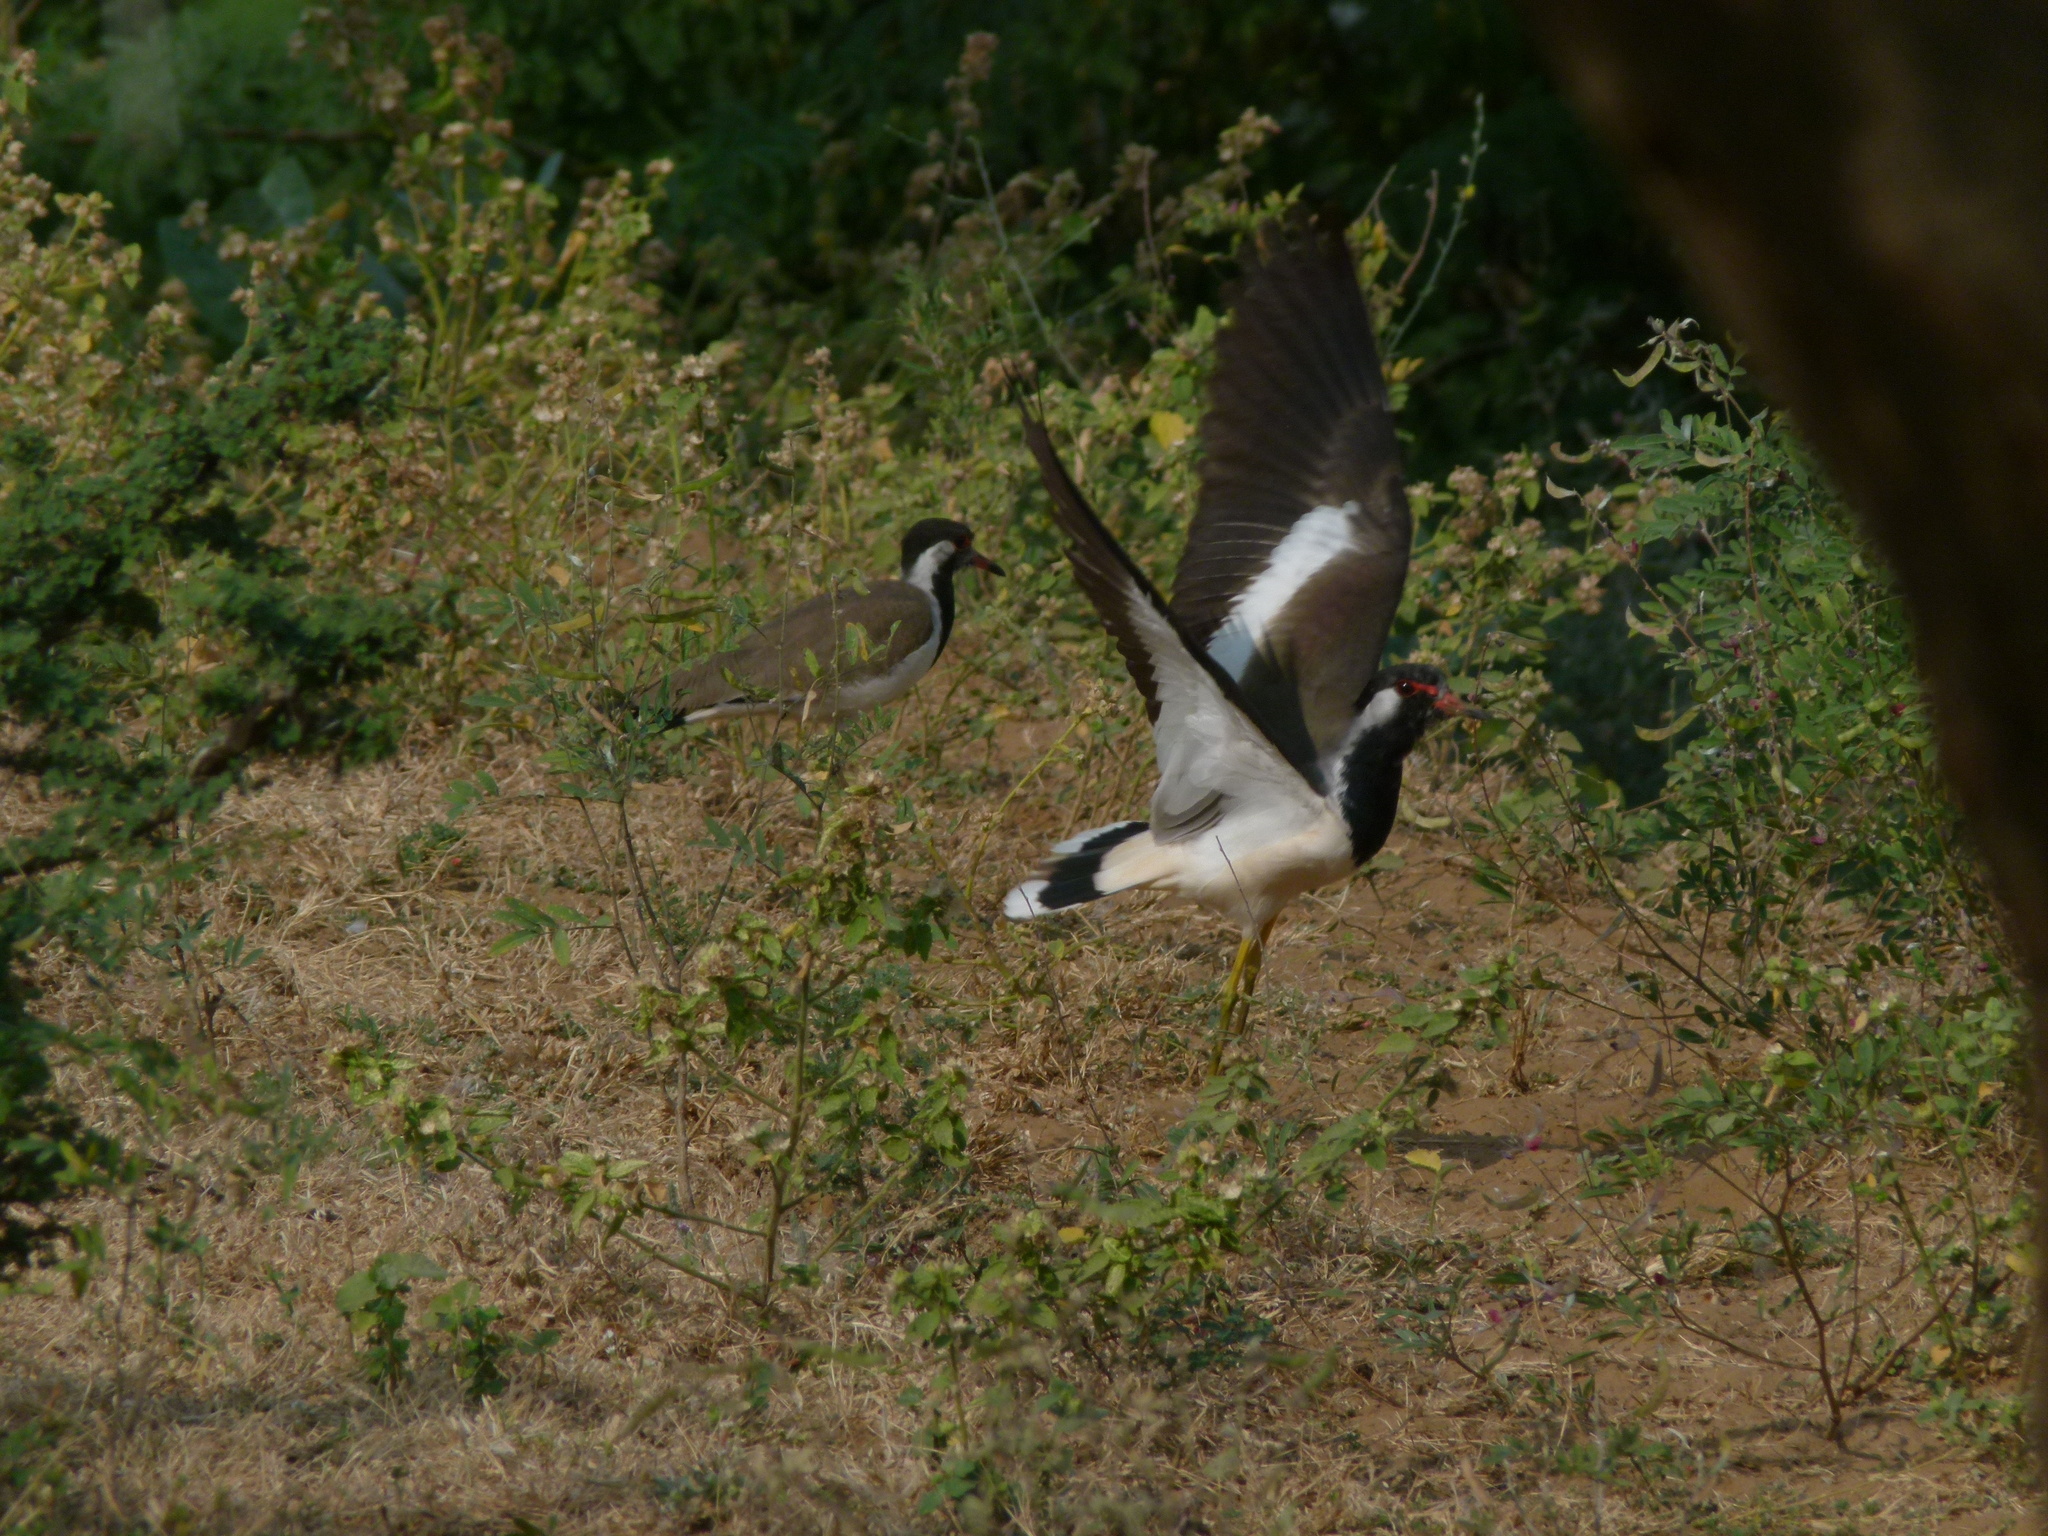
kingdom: Animalia
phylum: Chordata
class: Aves
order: Charadriiformes
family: Charadriidae
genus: Vanellus
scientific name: Vanellus indicus
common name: Red-wattled lapwing
